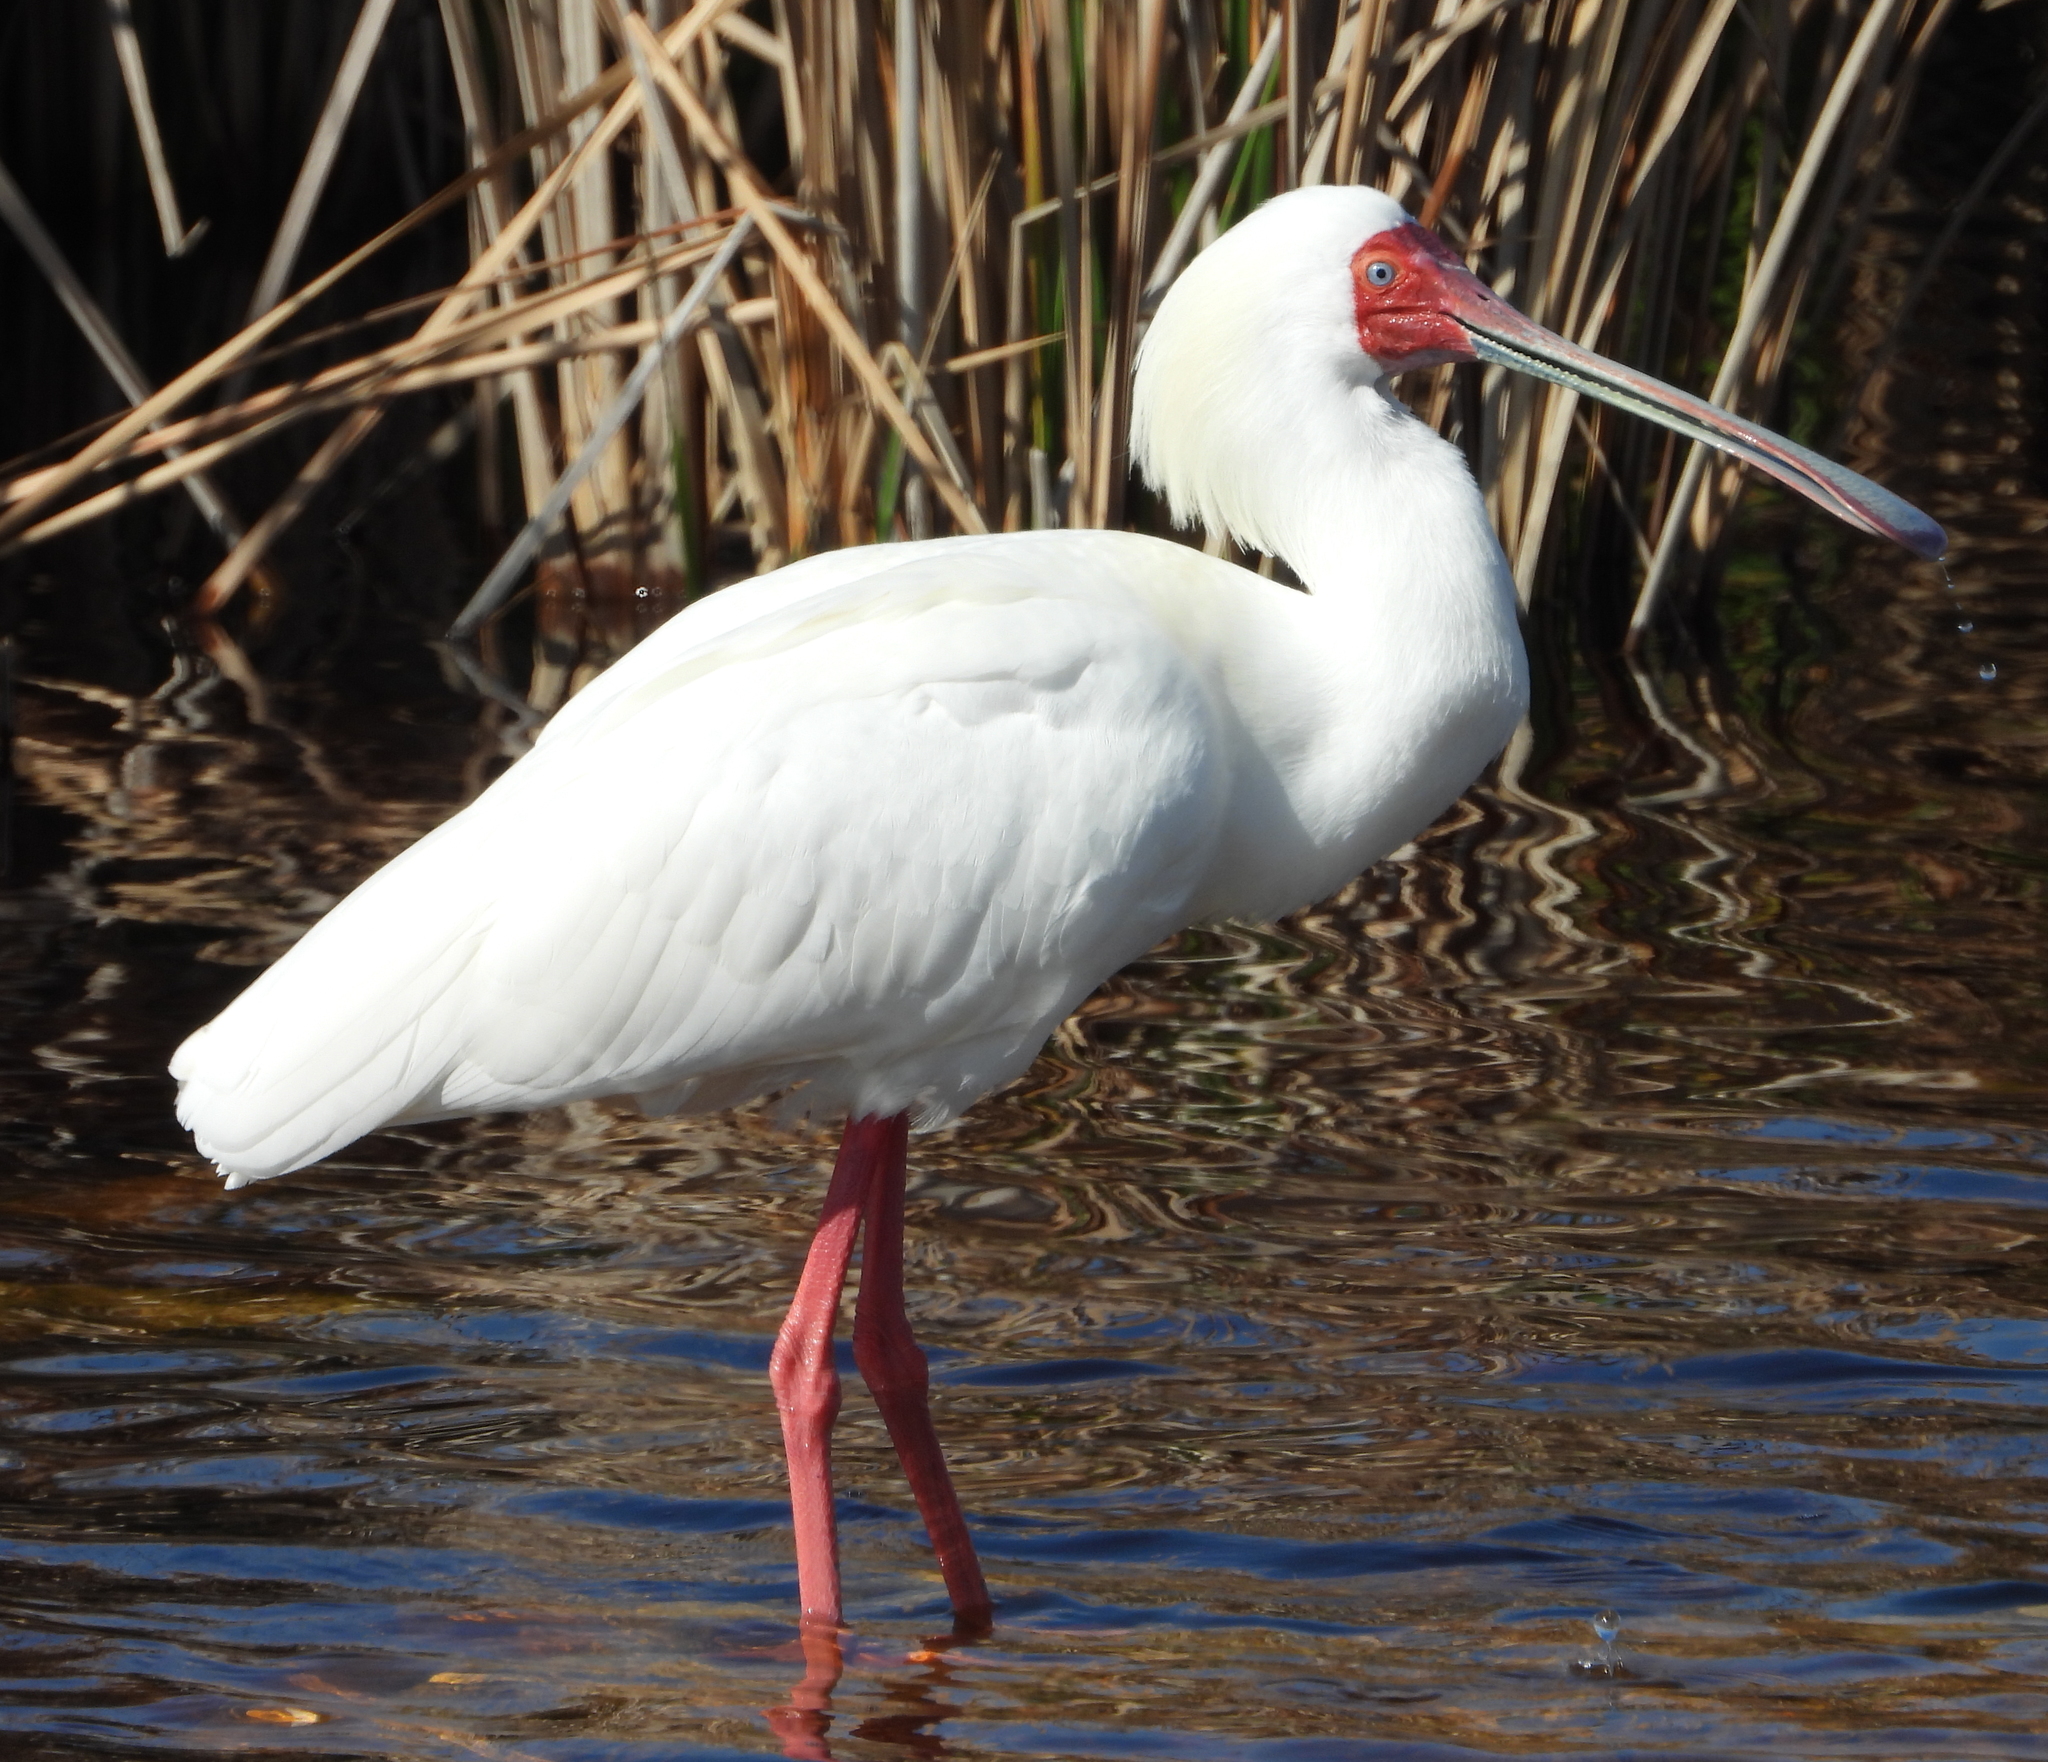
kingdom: Animalia
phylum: Chordata
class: Aves
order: Pelecaniformes
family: Threskiornithidae
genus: Platalea
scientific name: Platalea alba
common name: African spoonbill
